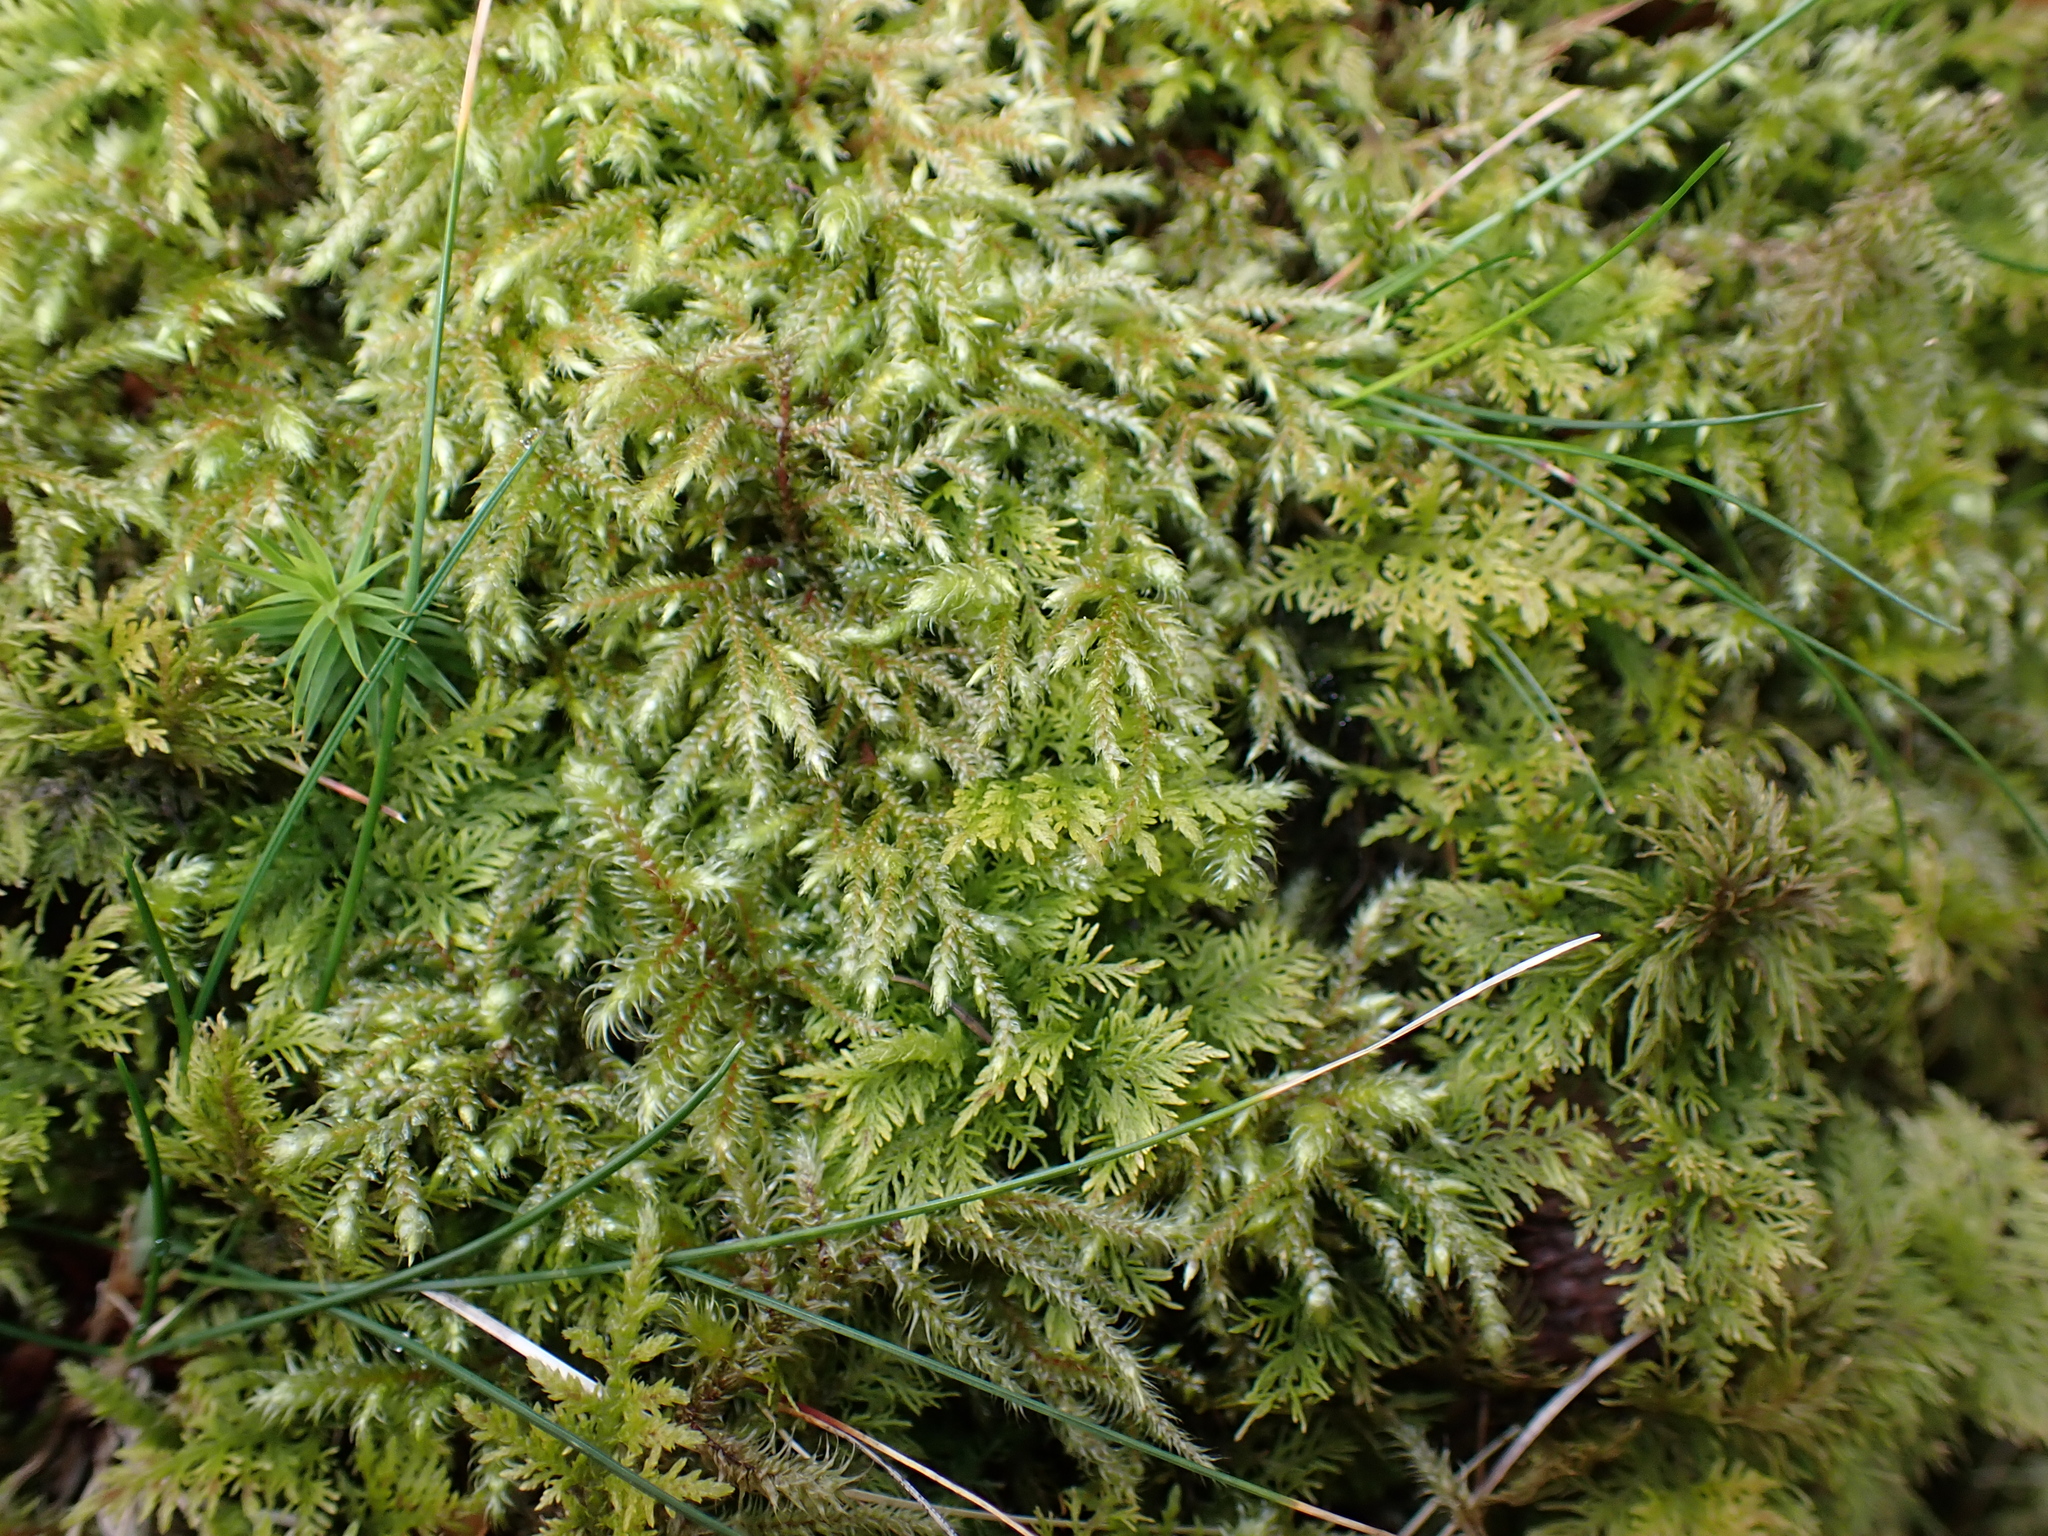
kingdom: Plantae
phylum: Bryophyta
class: Bryopsida
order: Hypnales
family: Thuidiaceae
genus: Thuidium
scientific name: Thuidium tamariscinum
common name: Common tamarisk-moss
